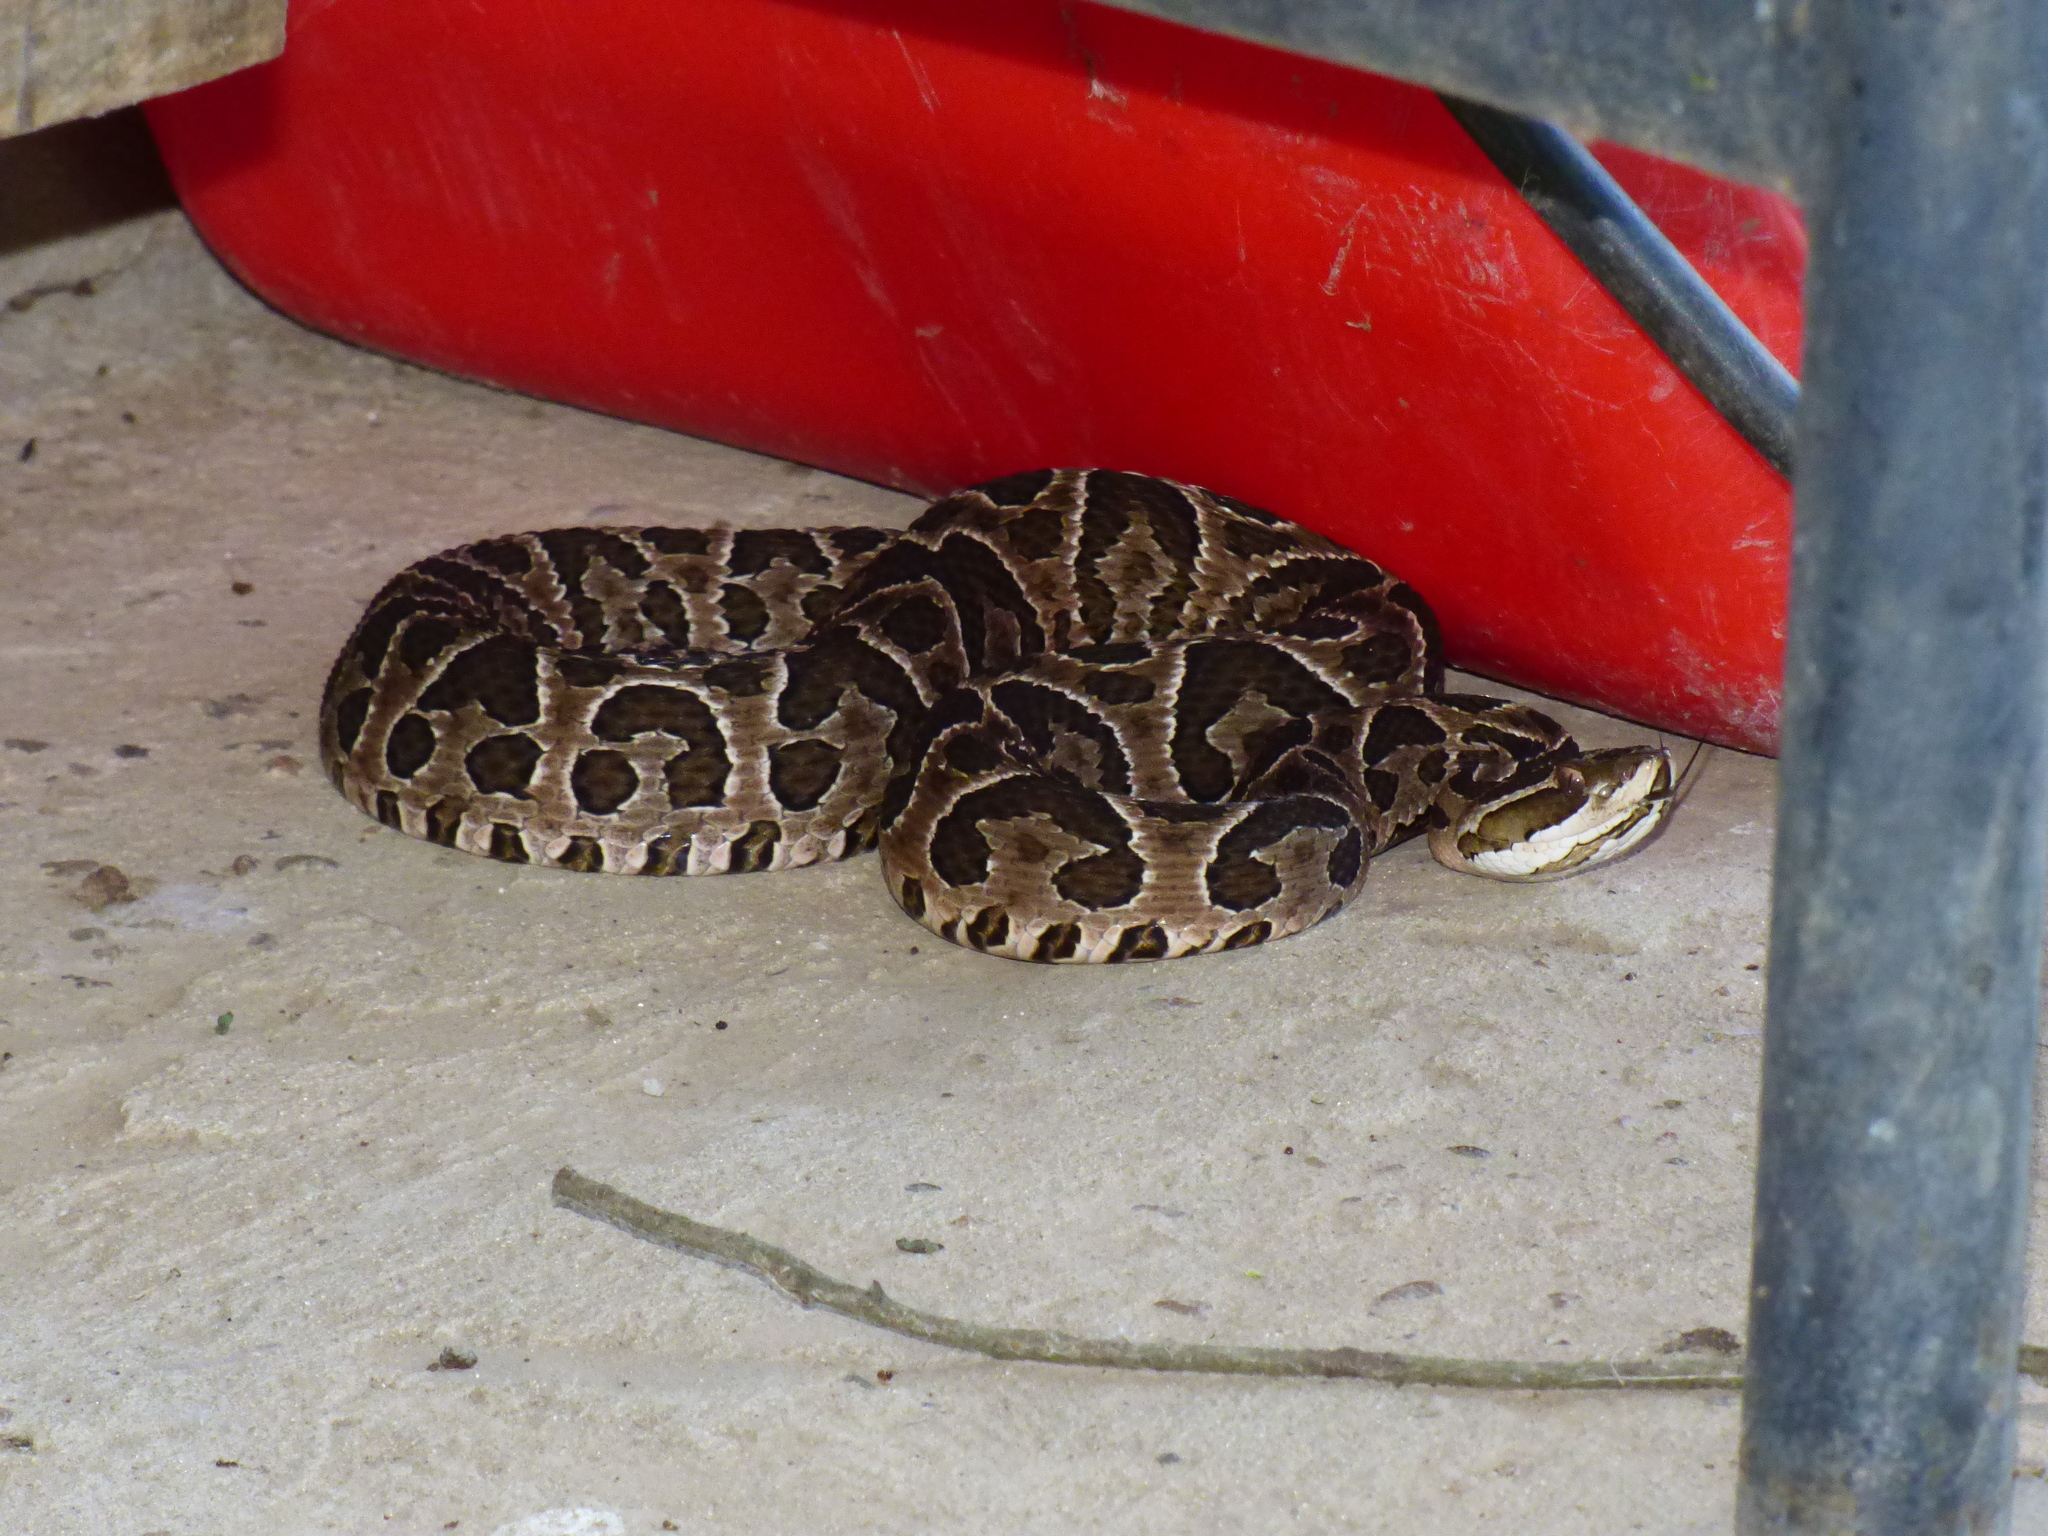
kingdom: Animalia
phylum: Chordata
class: Squamata
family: Viperidae
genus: Bothrops
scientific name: Bothrops alternatus
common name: Urutu
